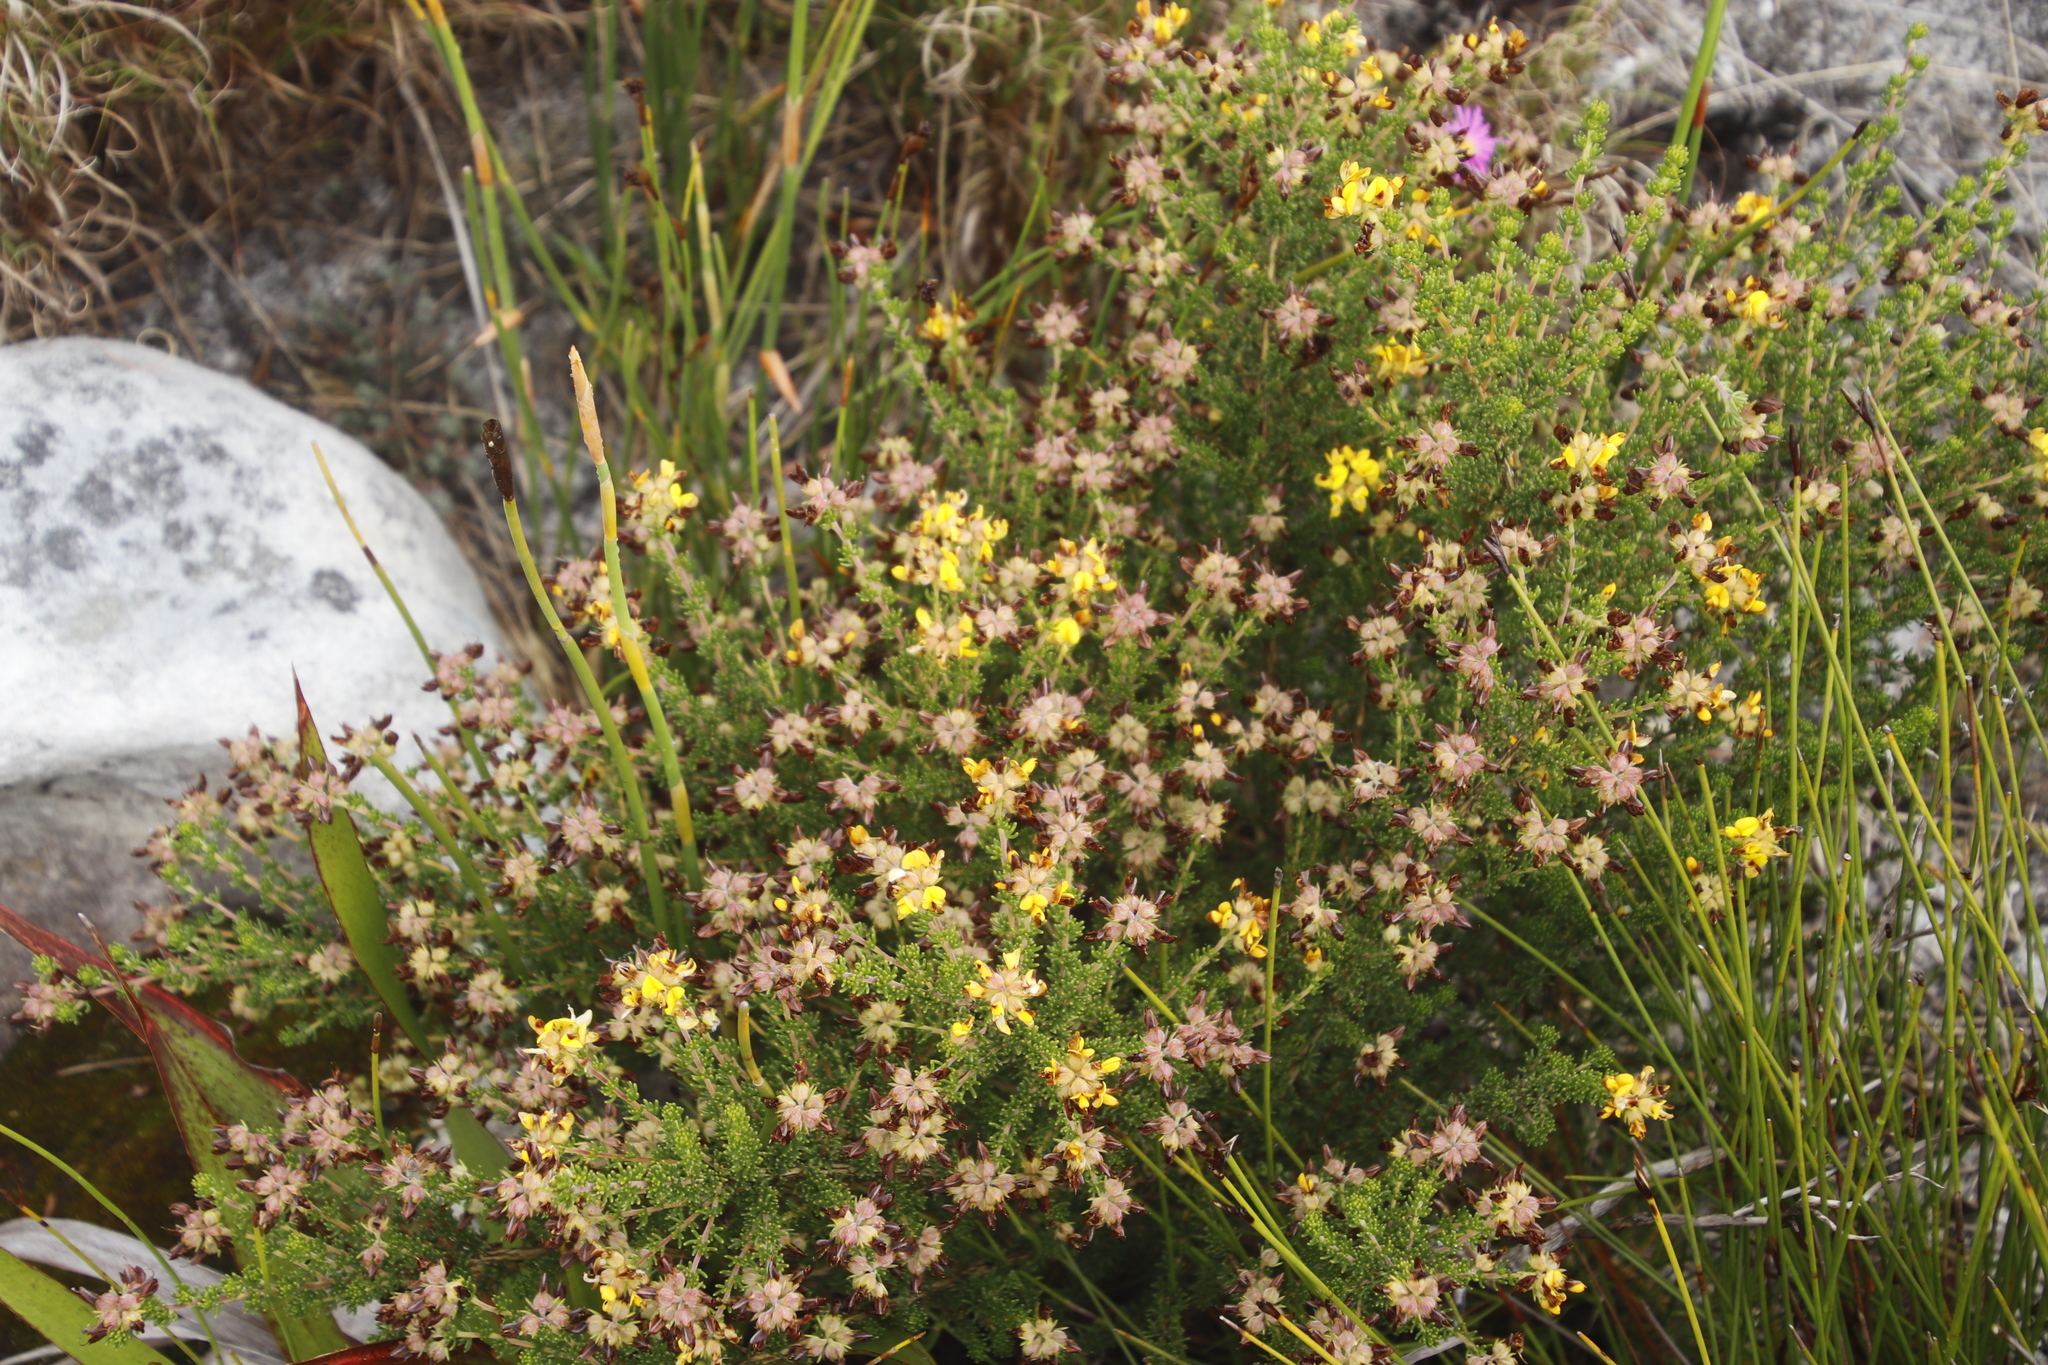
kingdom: Plantae
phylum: Tracheophyta
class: Magnoliopsida
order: Fabales
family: Fabaceae
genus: Aspalathus
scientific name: Aspalathus carnosa
